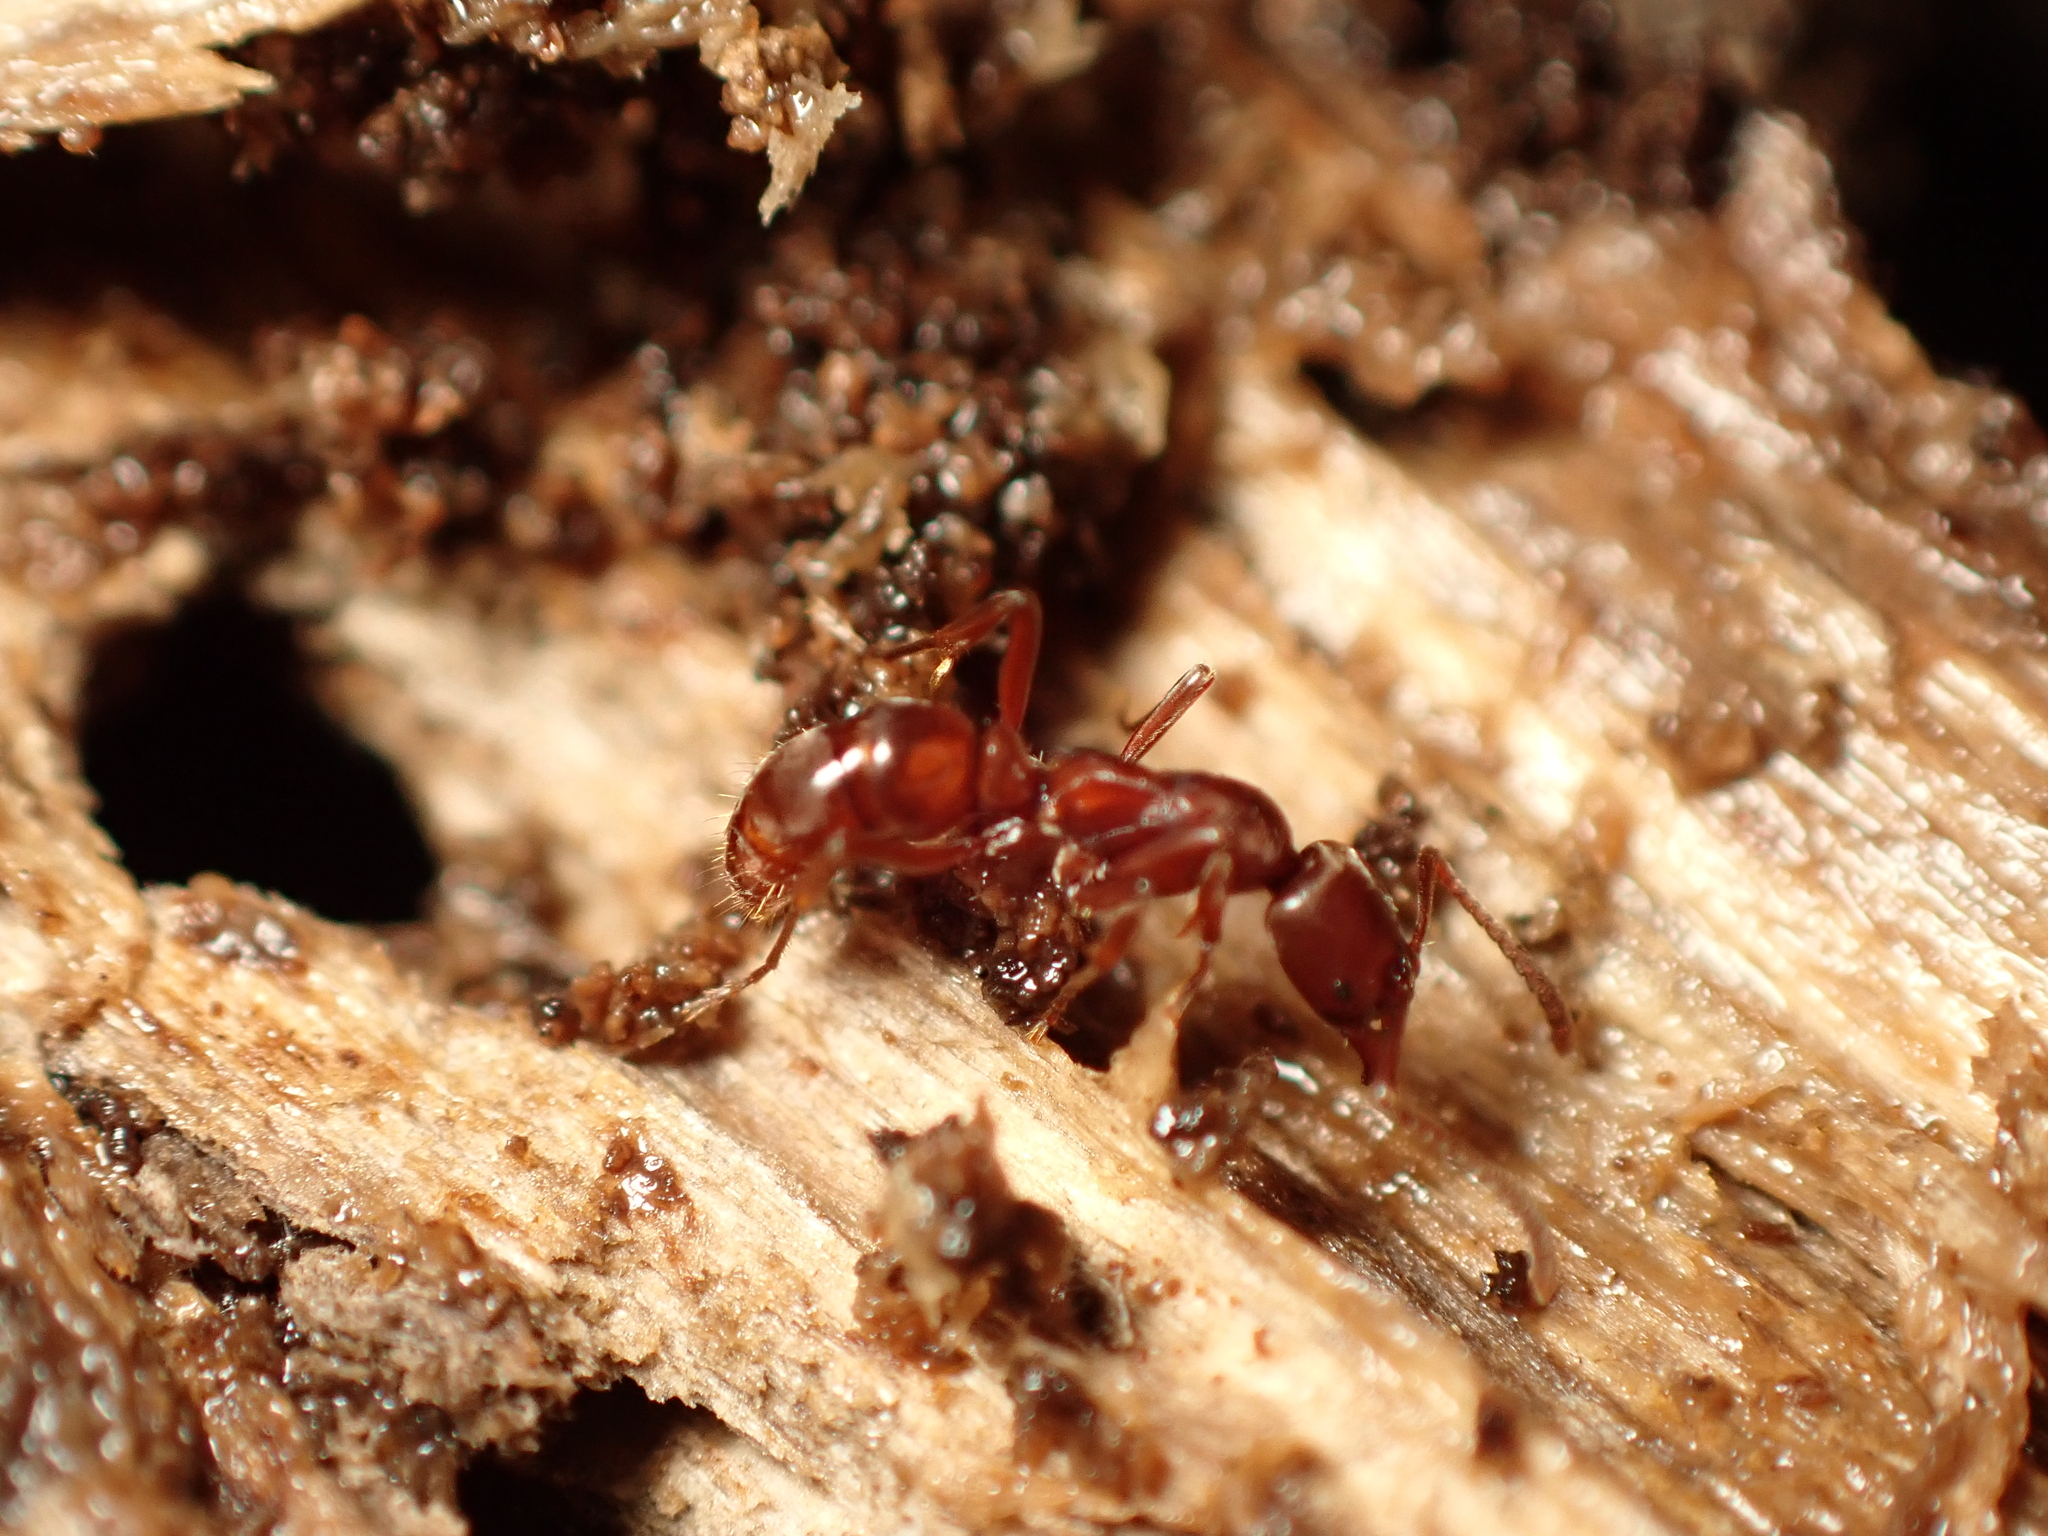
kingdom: Animalia
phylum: Arthropoda
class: Insecta
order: Hymenoptera
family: Formicidae
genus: Austroponera
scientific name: Austroponera
